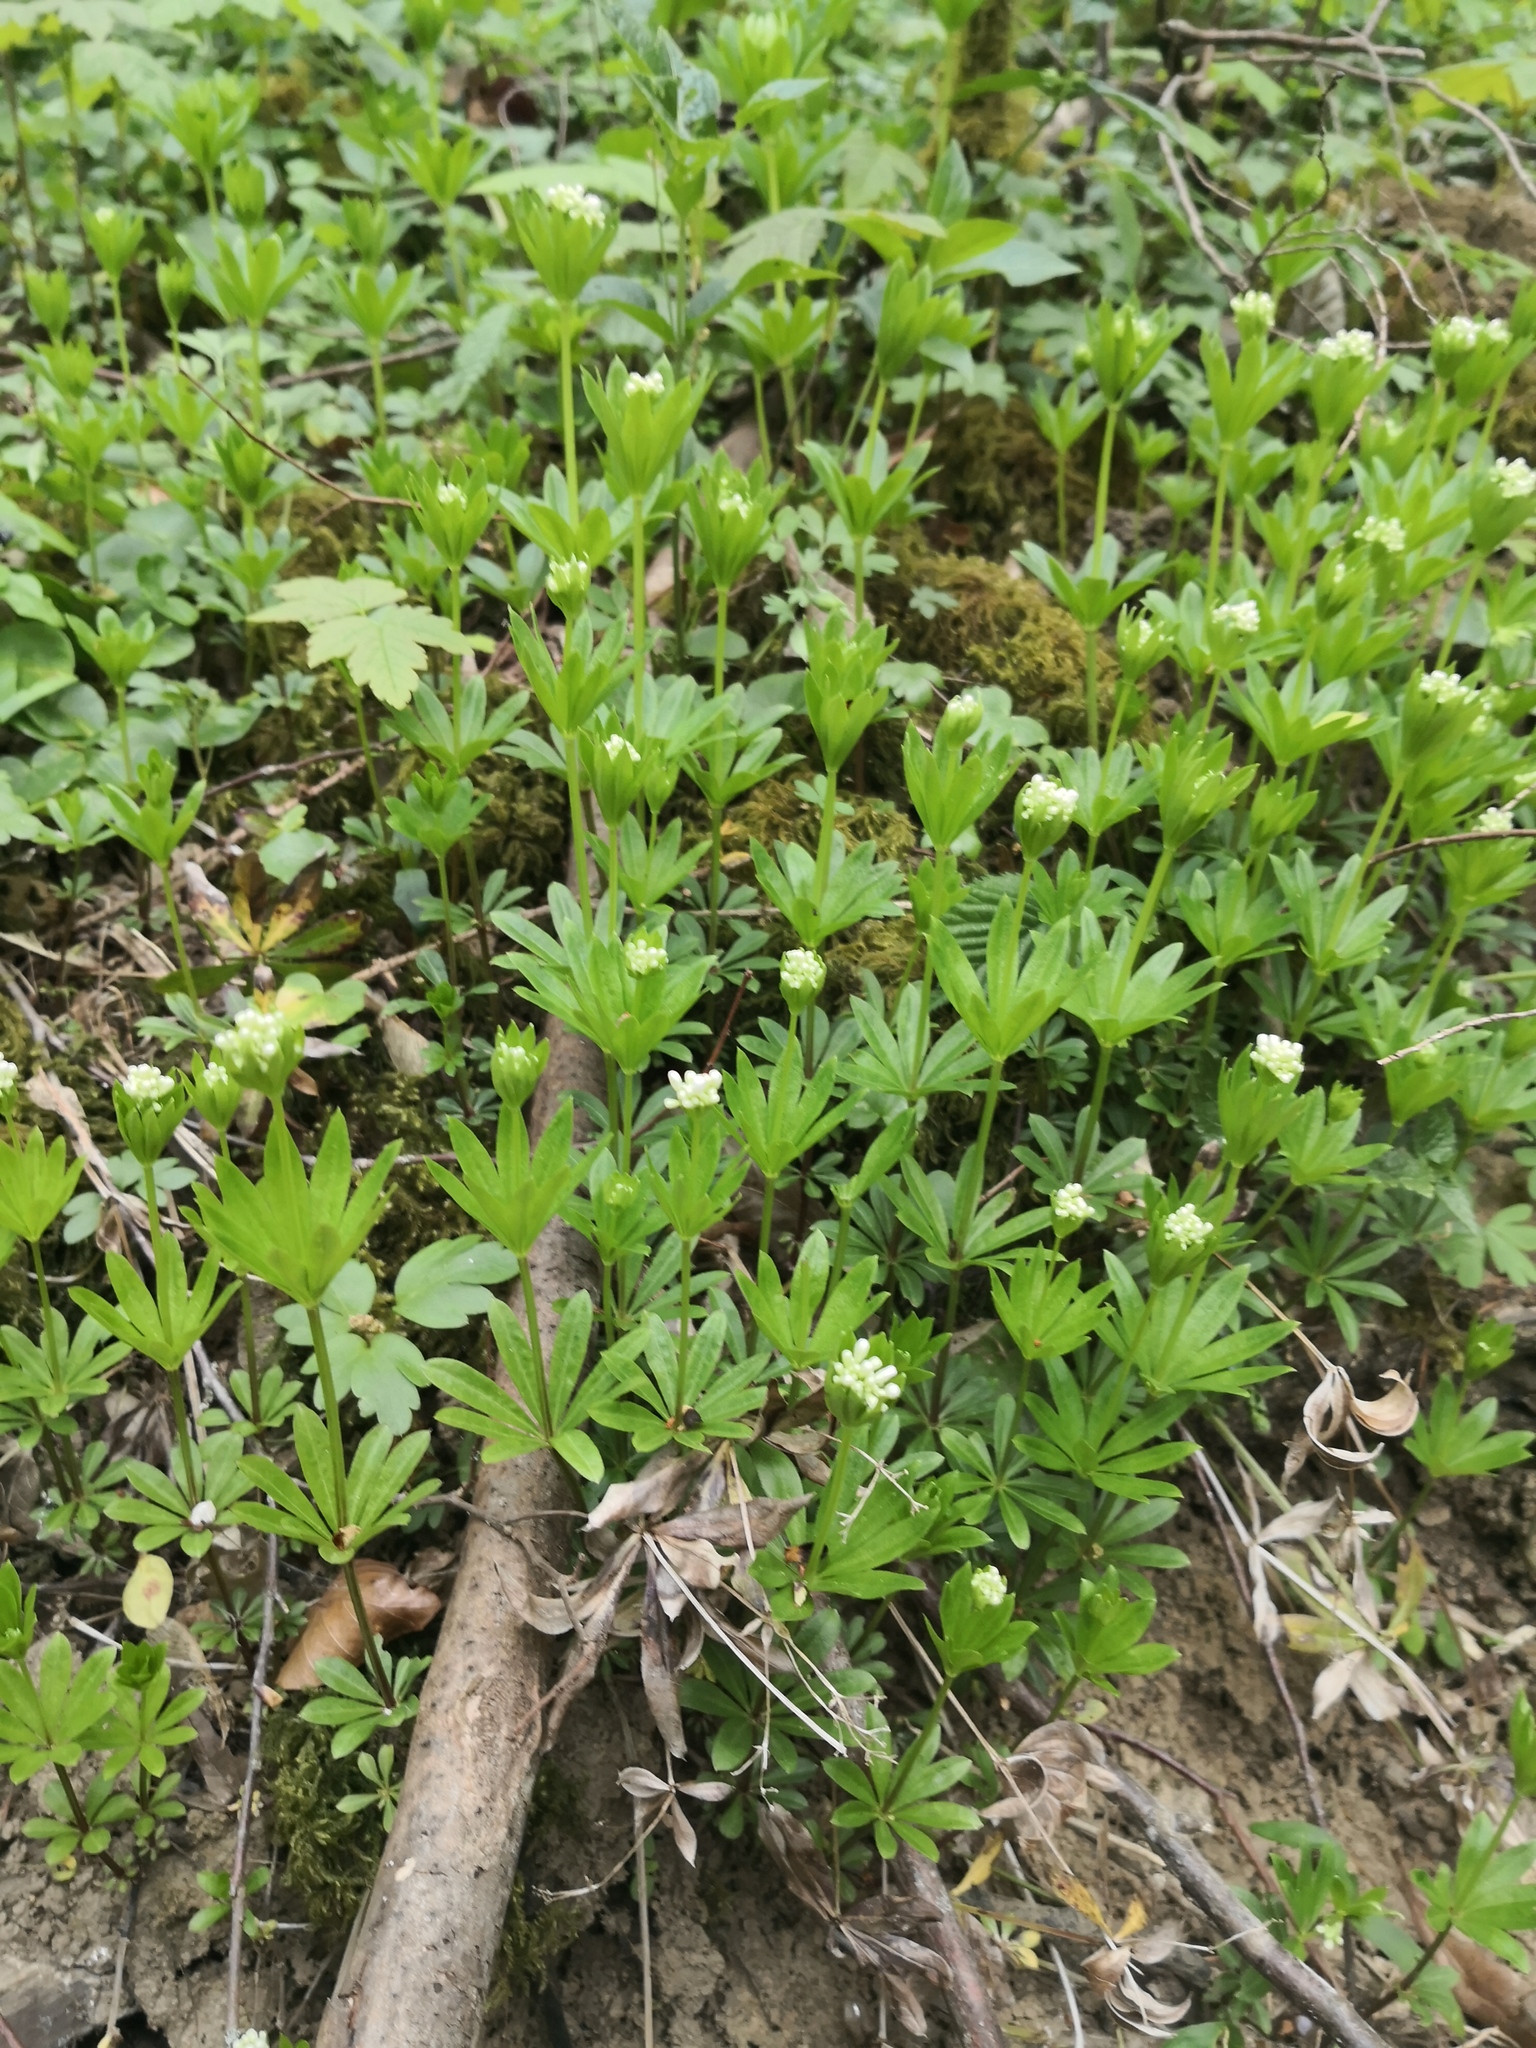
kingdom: Plantae
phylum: Tracheophyta
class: Magnoliopsida
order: Gentianales
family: Rubiaceae
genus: Galium
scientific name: Galium odoratum
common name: Sweet woodruff
